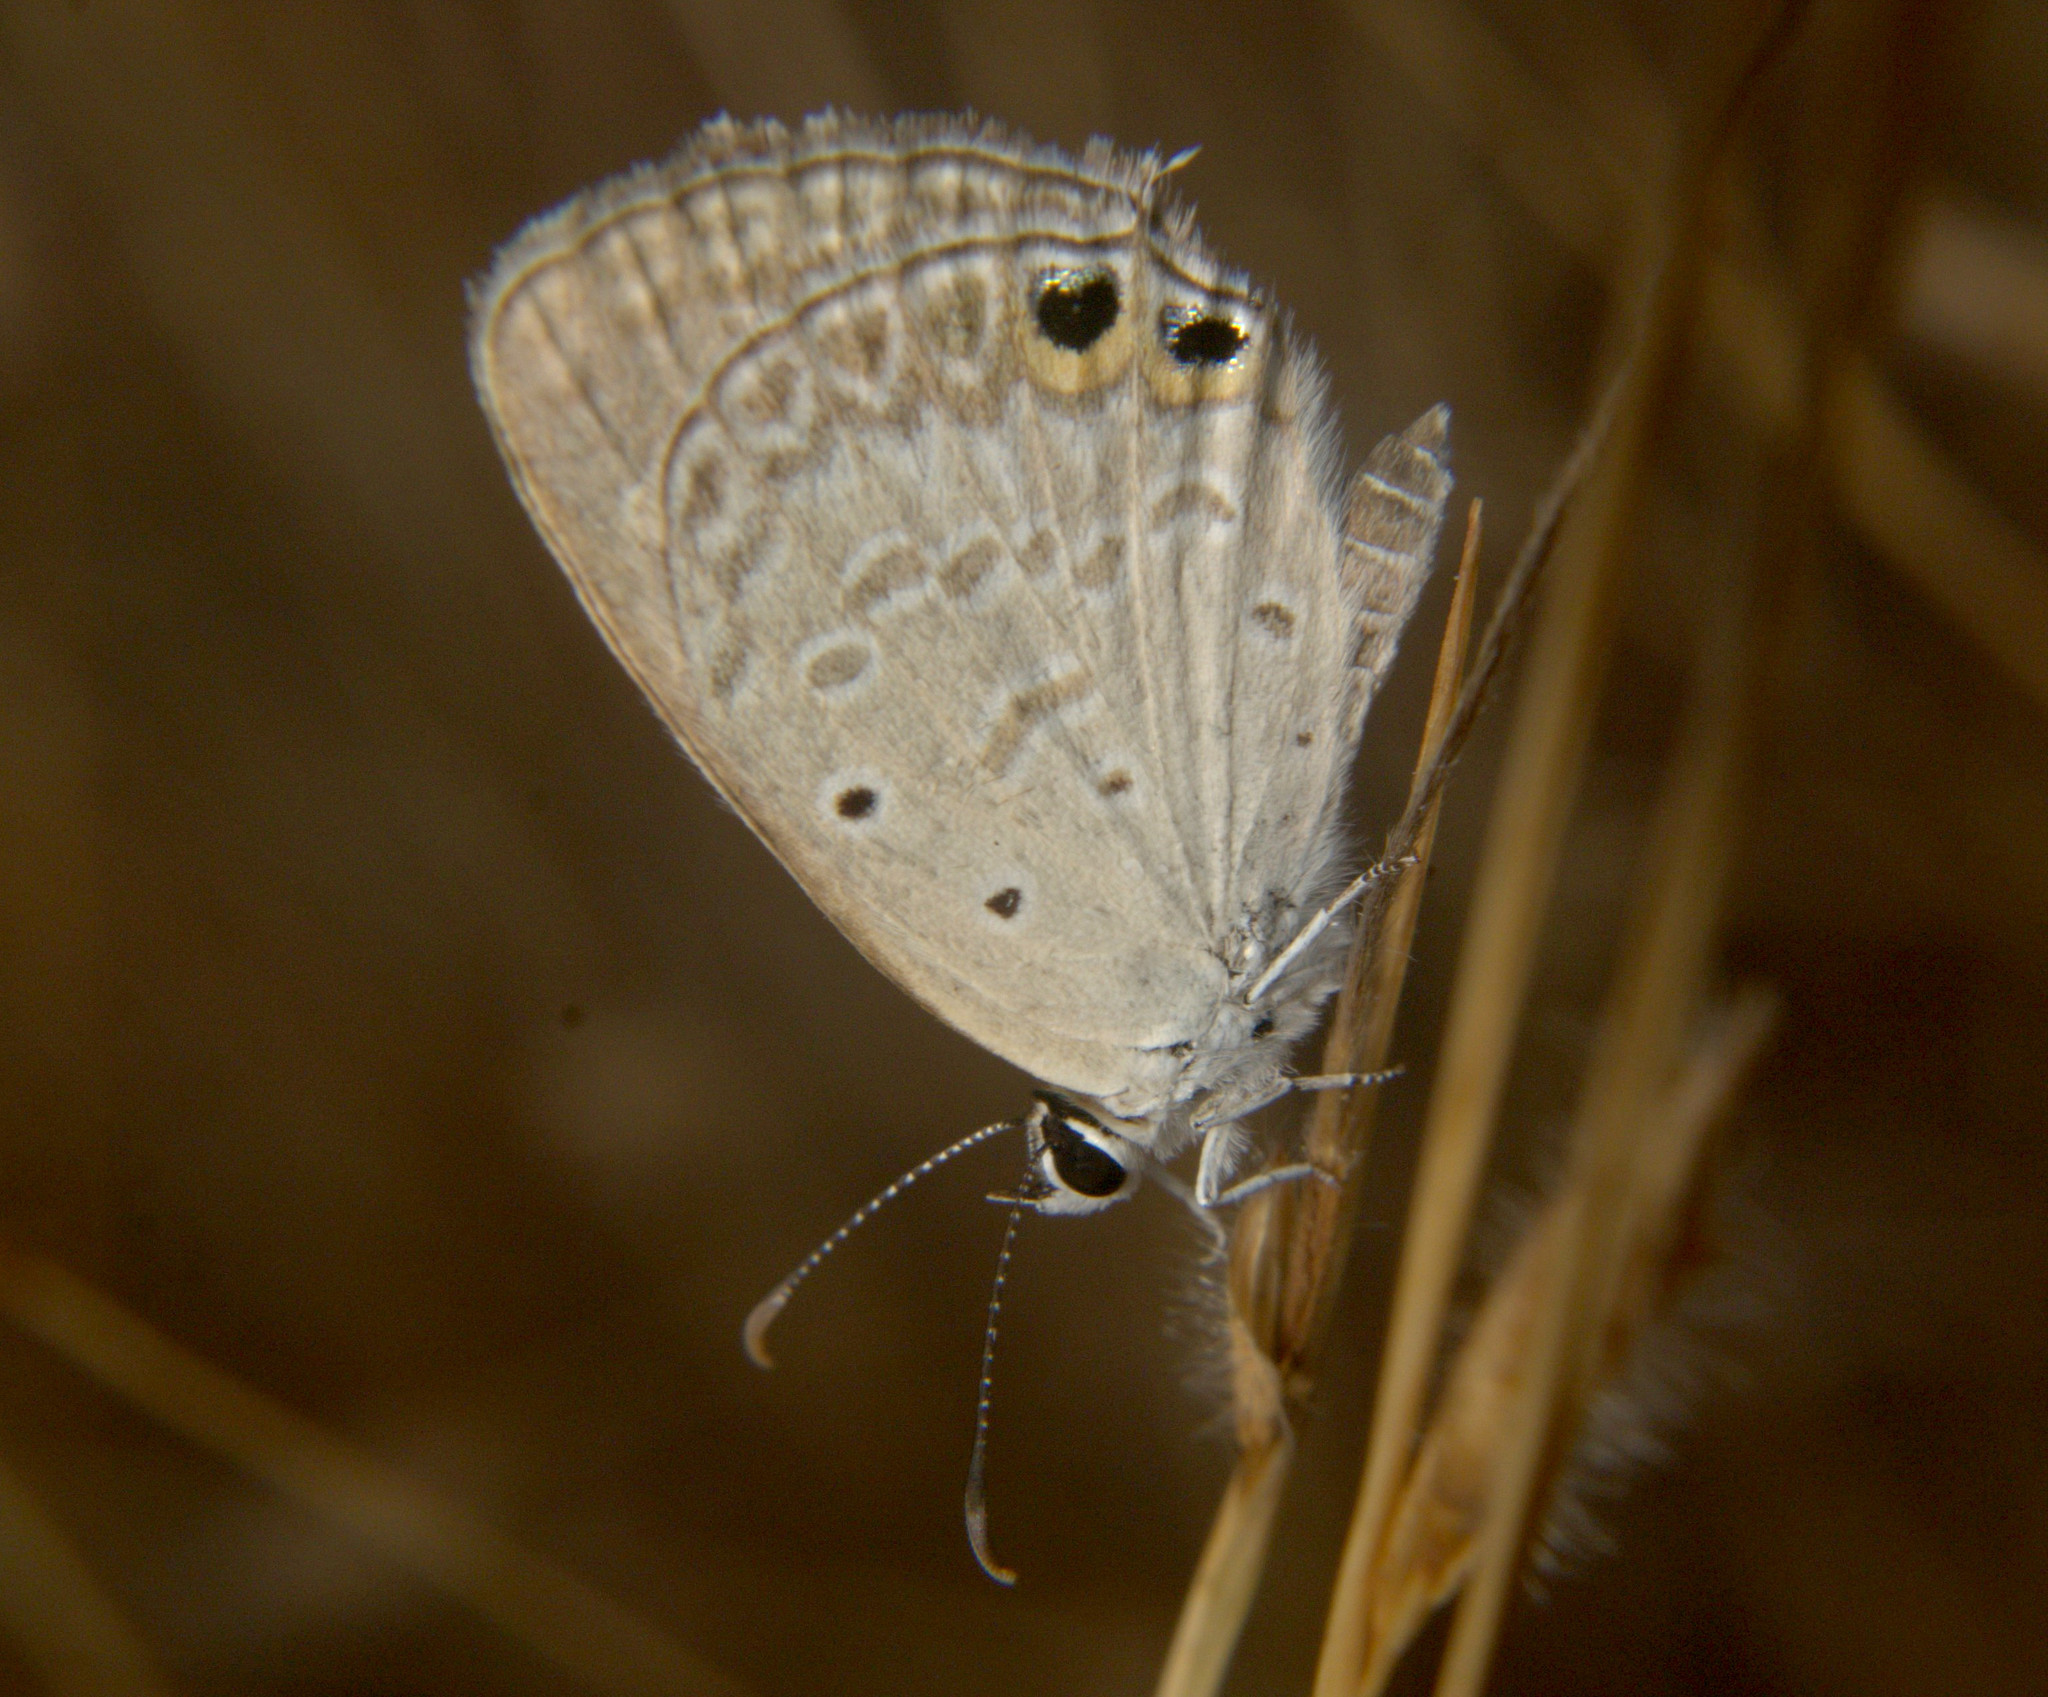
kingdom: Animalia
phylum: Arthropoda
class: Insecta
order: Lepidoptera
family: Lycaenidae
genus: Euchrysops
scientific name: Euchrysops cnejus
